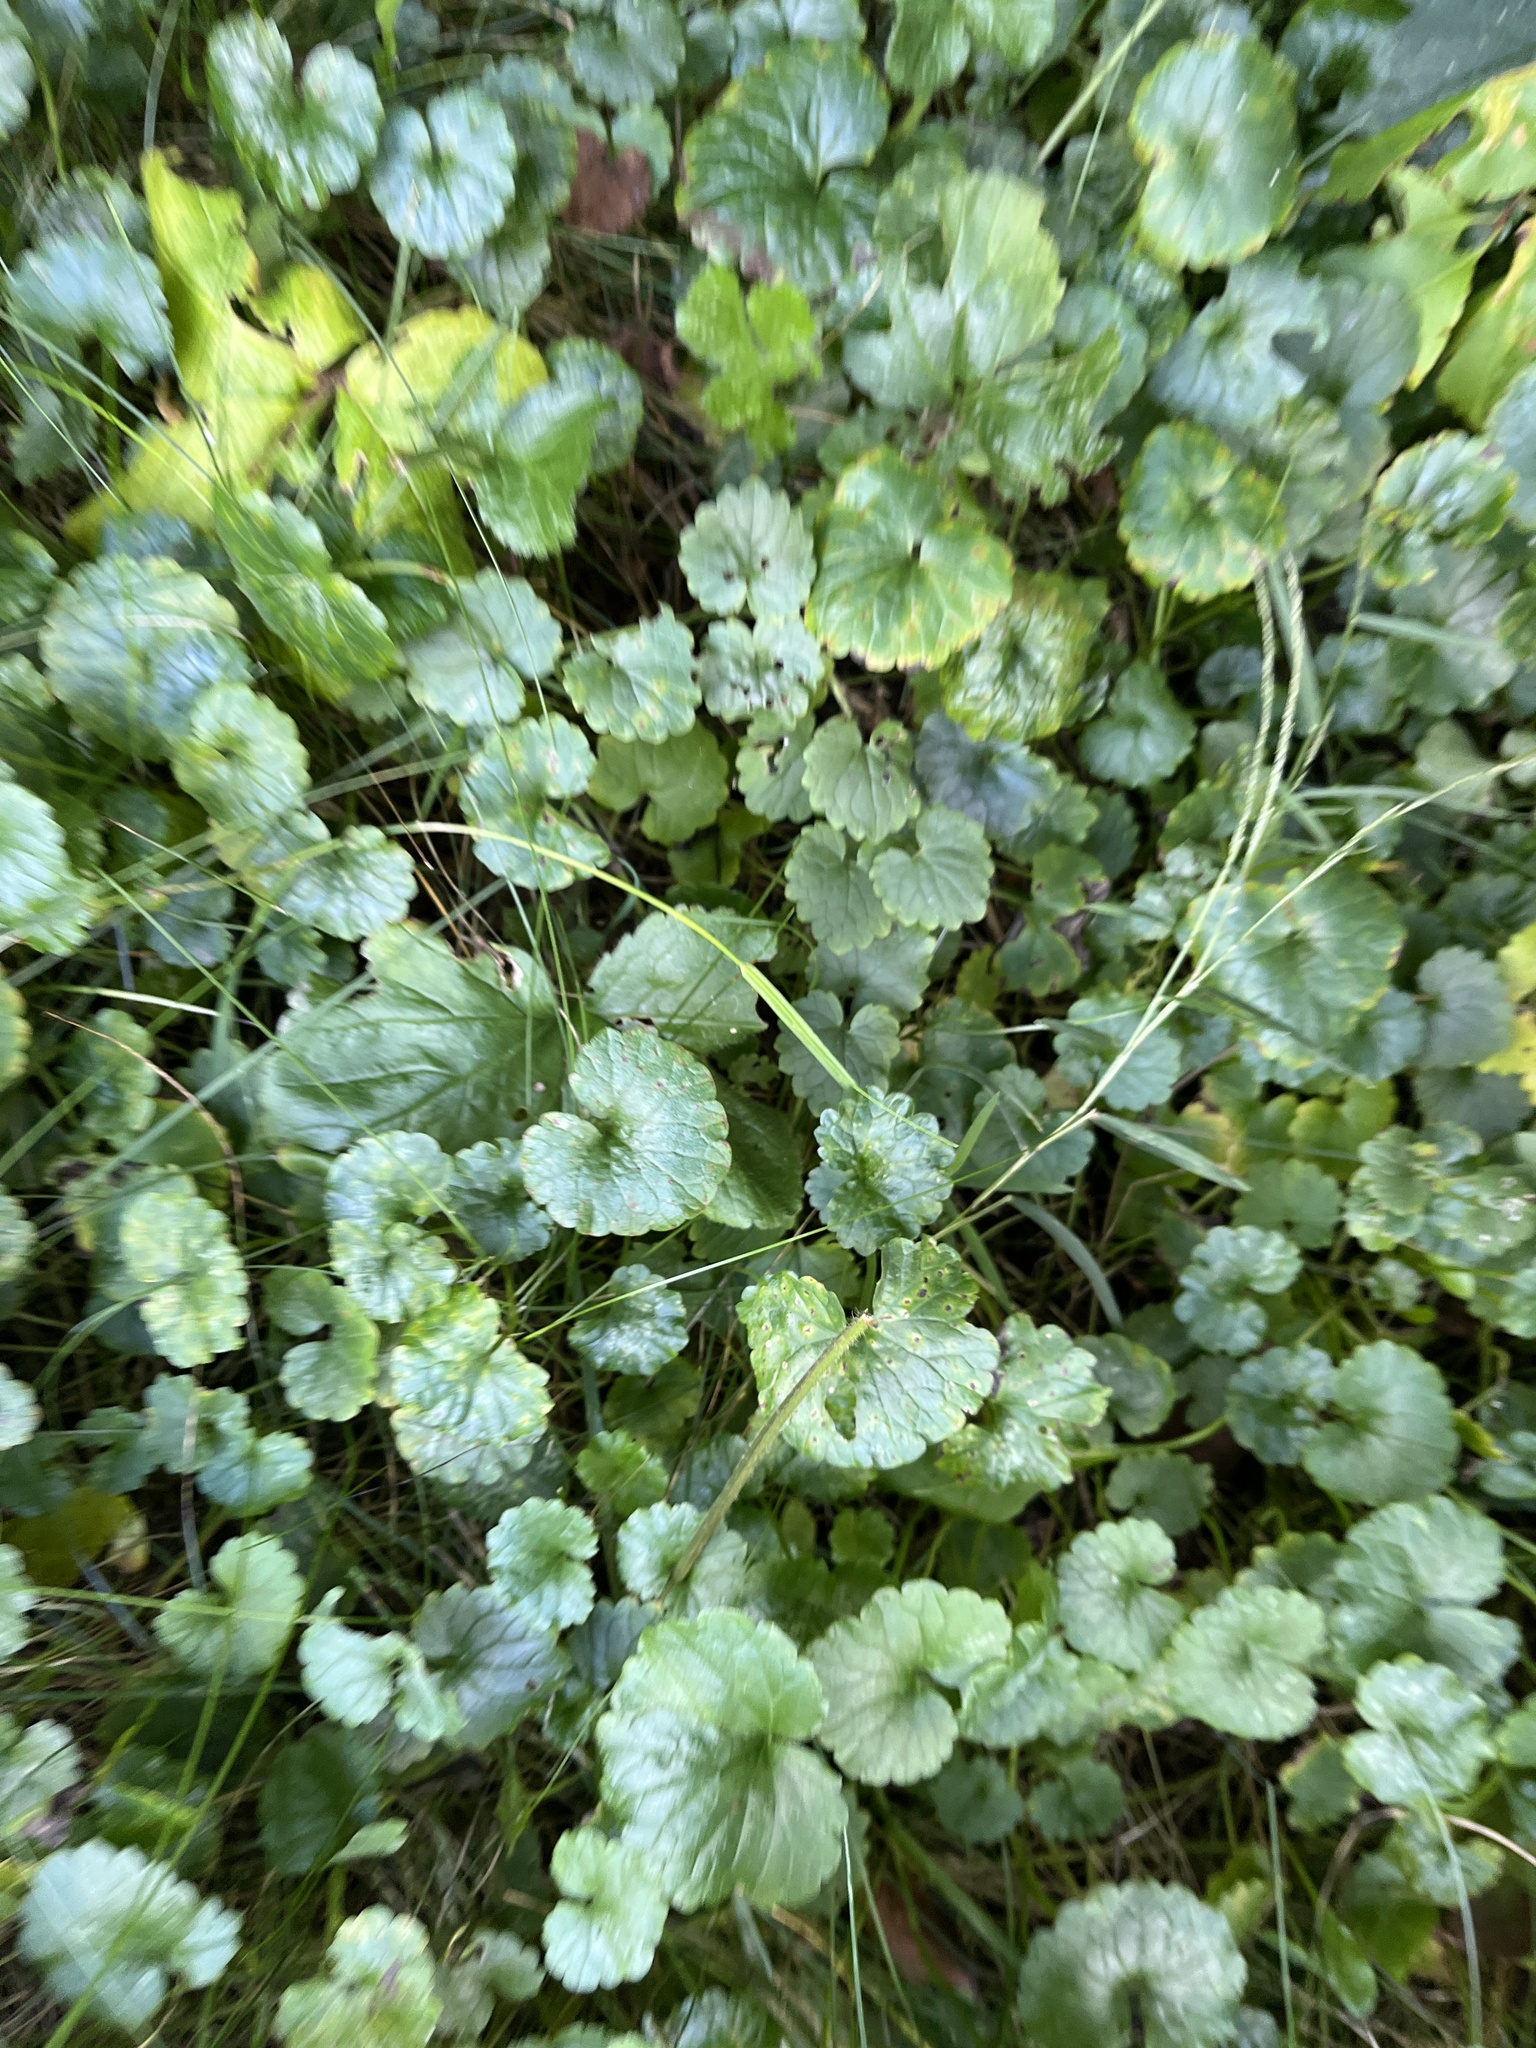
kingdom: Plantae
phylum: Tracheophyta
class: Magnoliopsida
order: Lamiales
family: Lamiaceae
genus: Glechoma
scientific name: Glechoma hederacea
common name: Ground ivy
